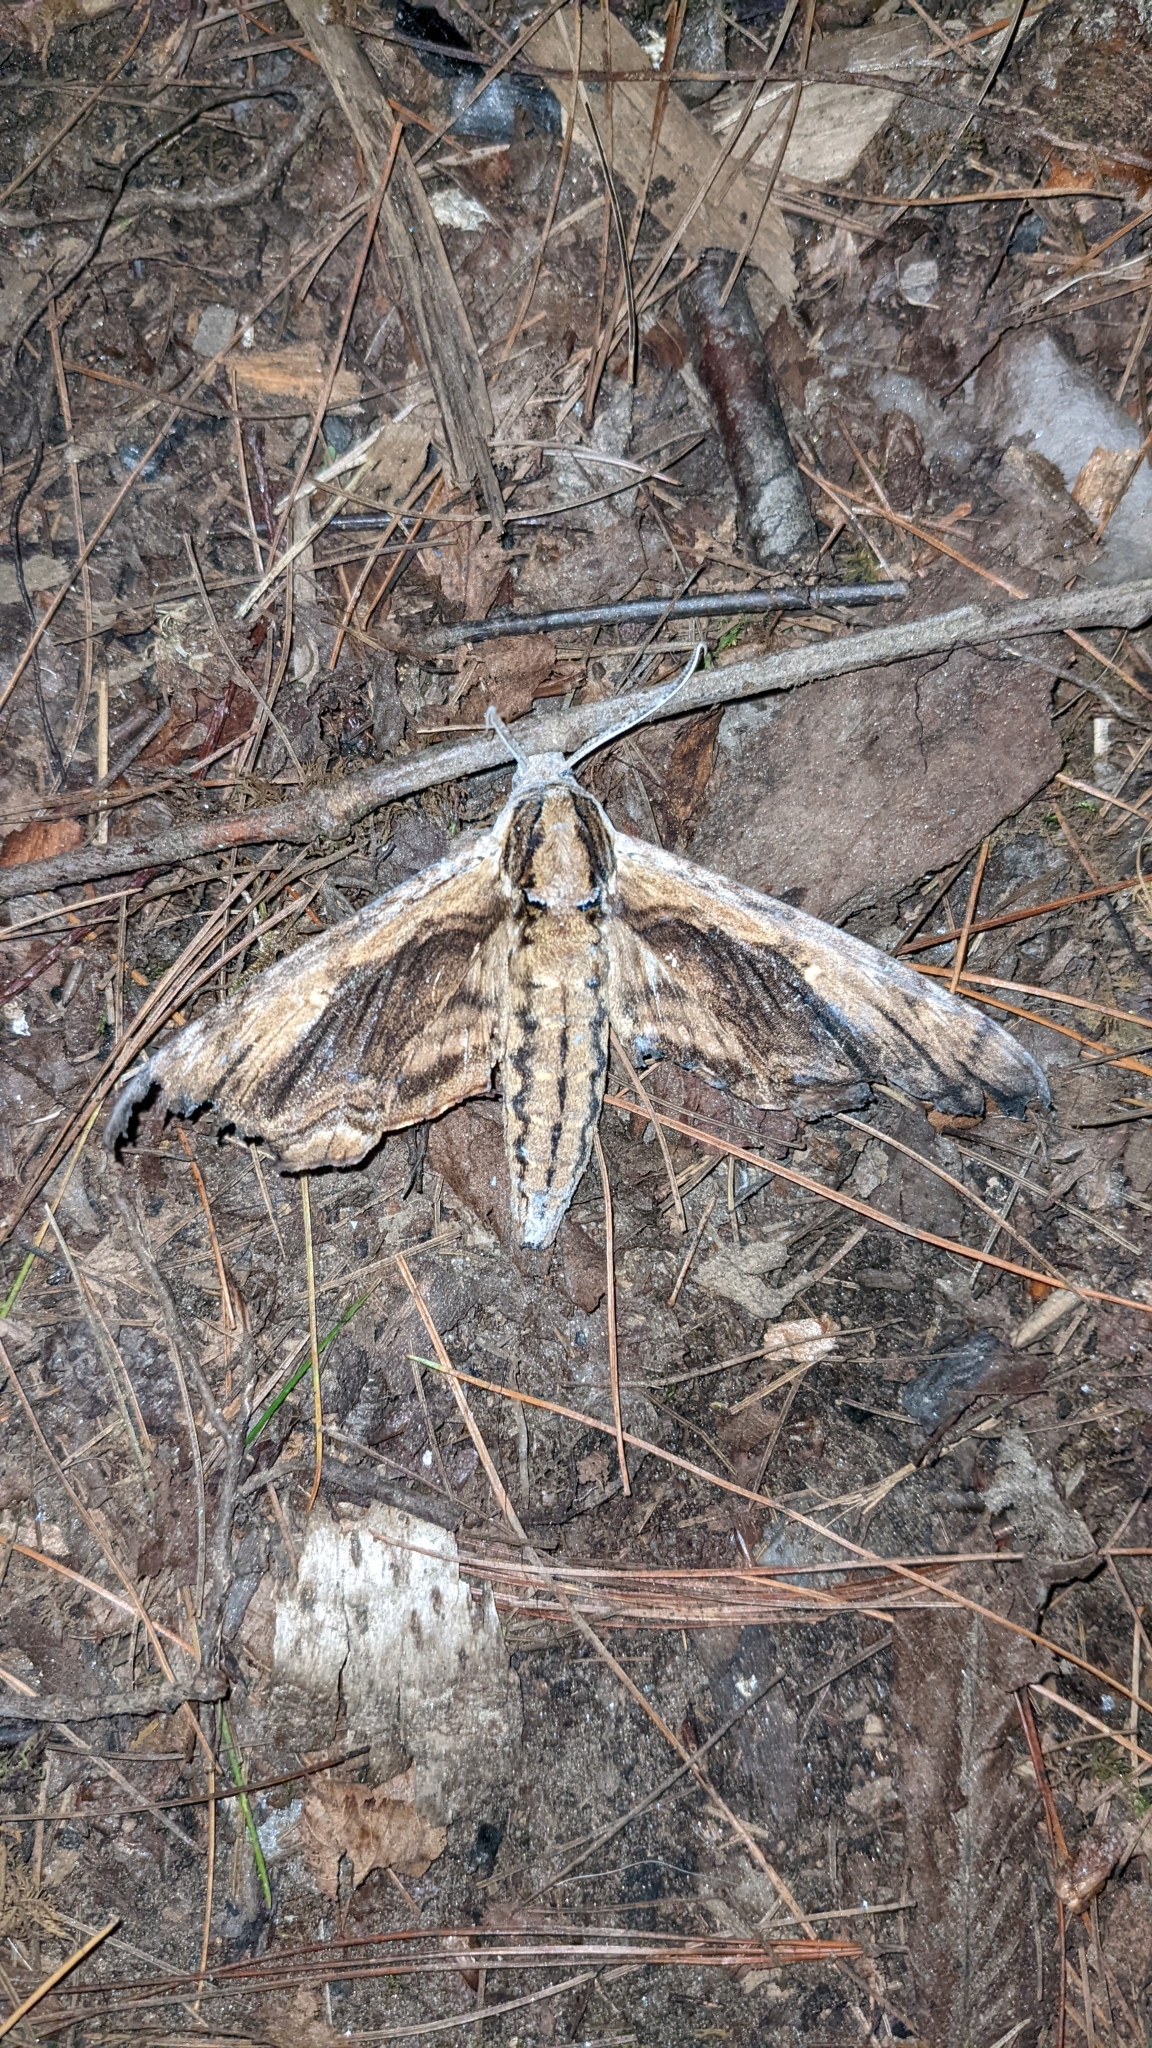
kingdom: Animalia
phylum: Arthropoda
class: Insecta
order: Lepidoptera
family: Sphingidae
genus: Ceratomia
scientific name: Ceratomia amyntor
